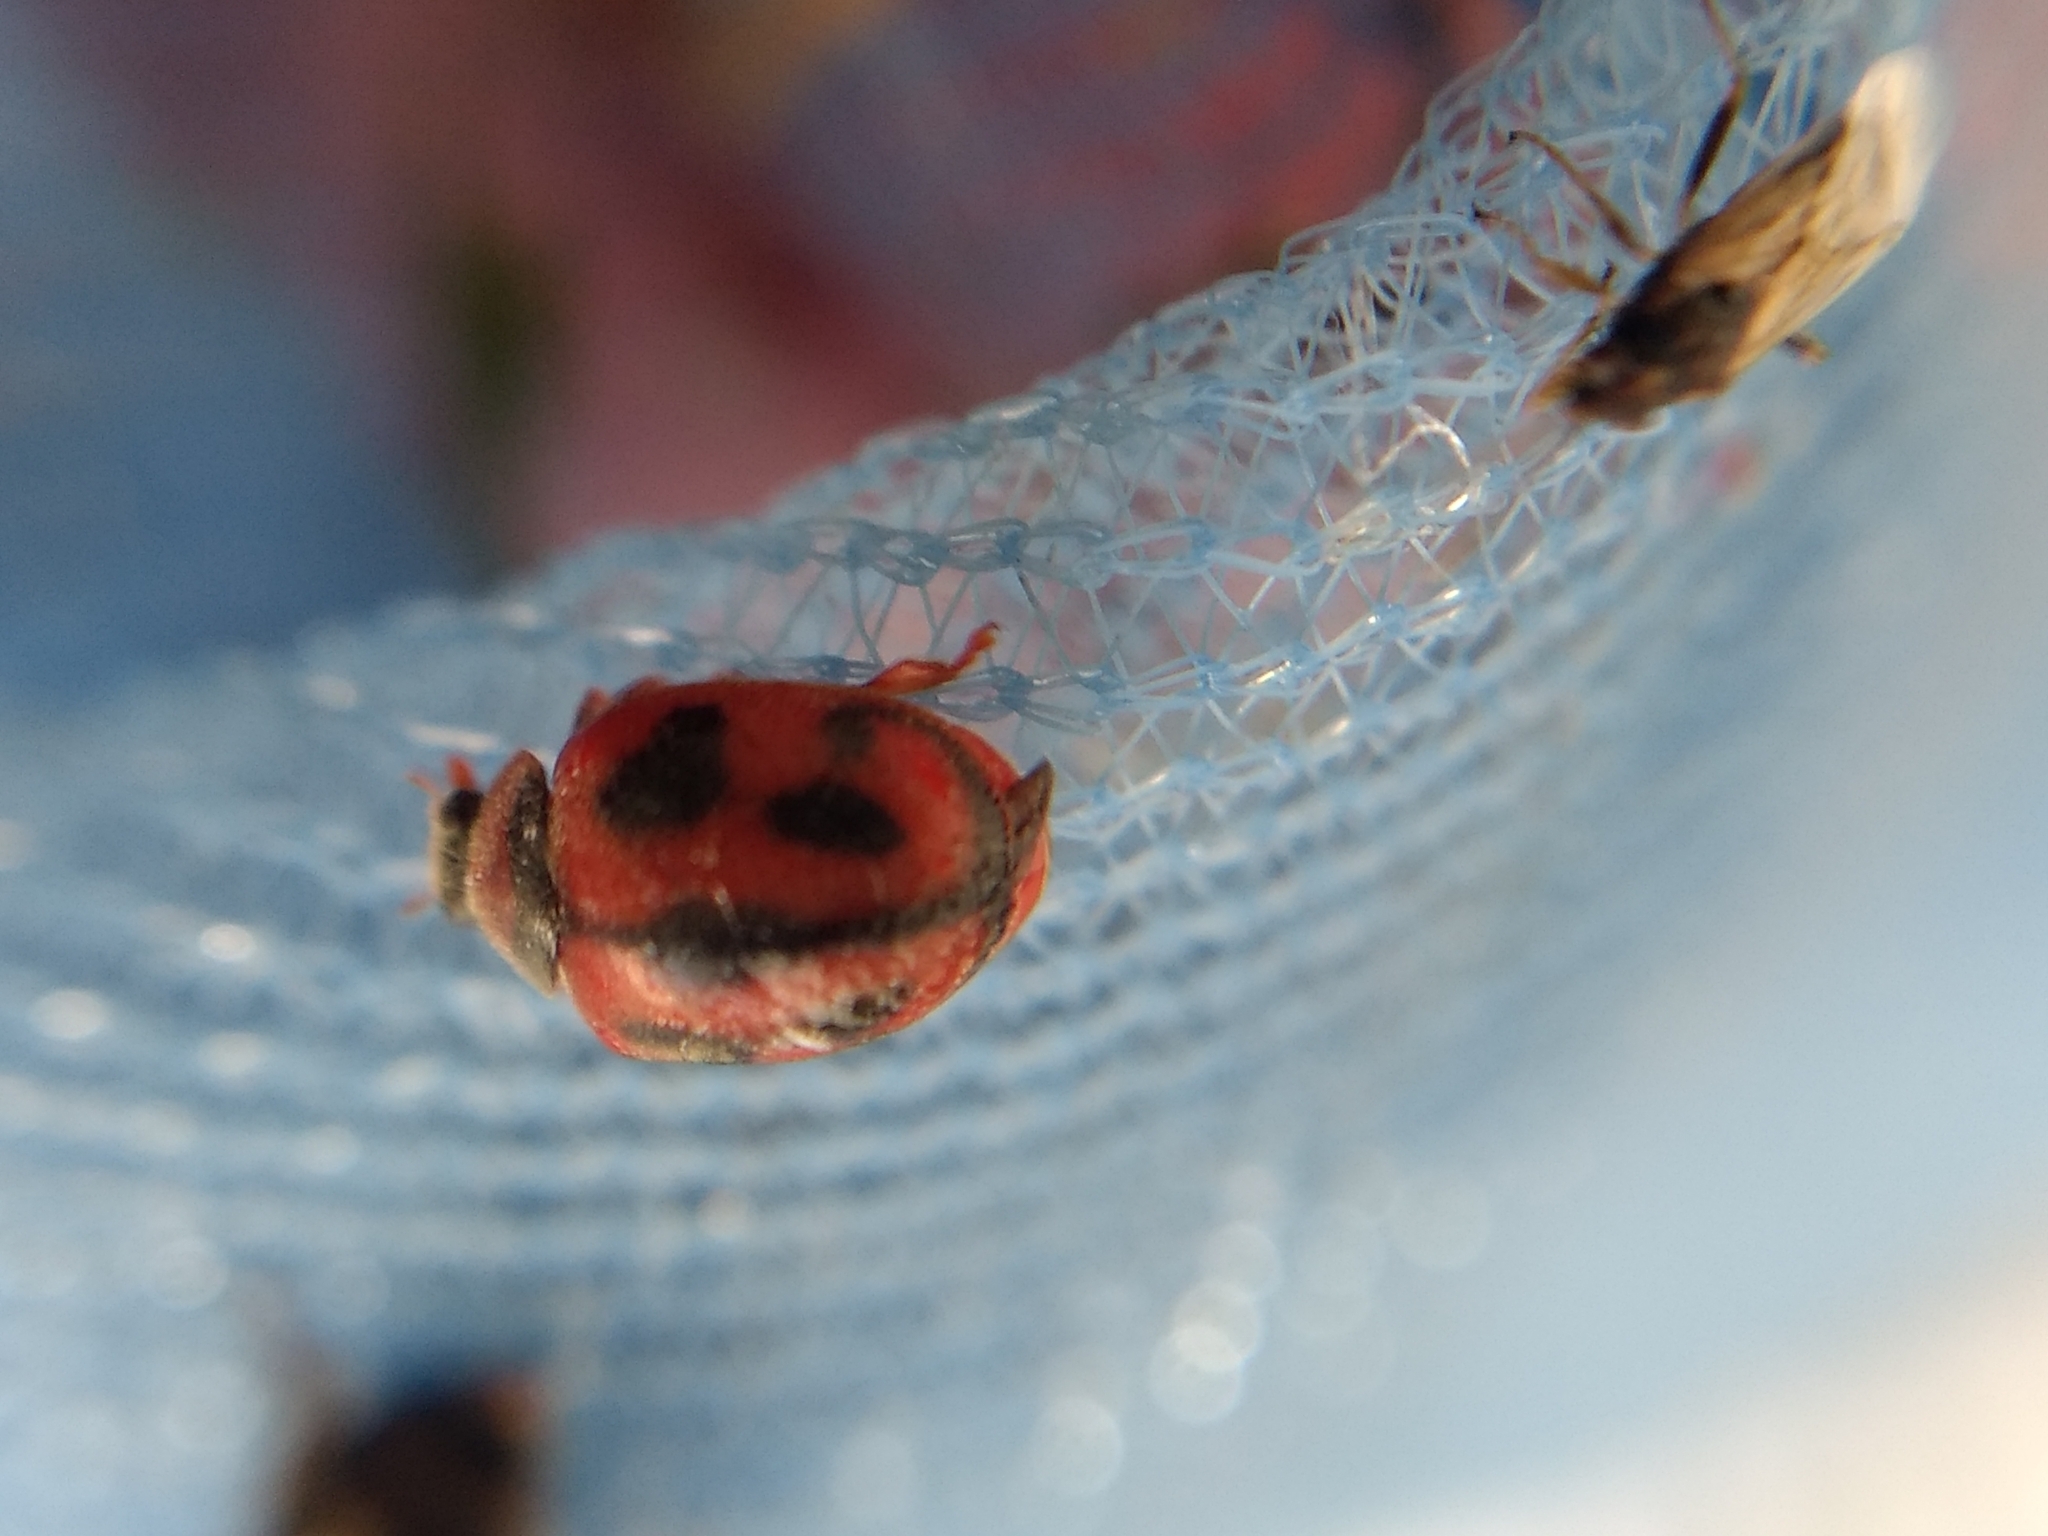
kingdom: Animalia
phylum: Arthropoda
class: Insecta
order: Coleoptera
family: Coccinellidae
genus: Novius
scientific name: Novius cardinalis
